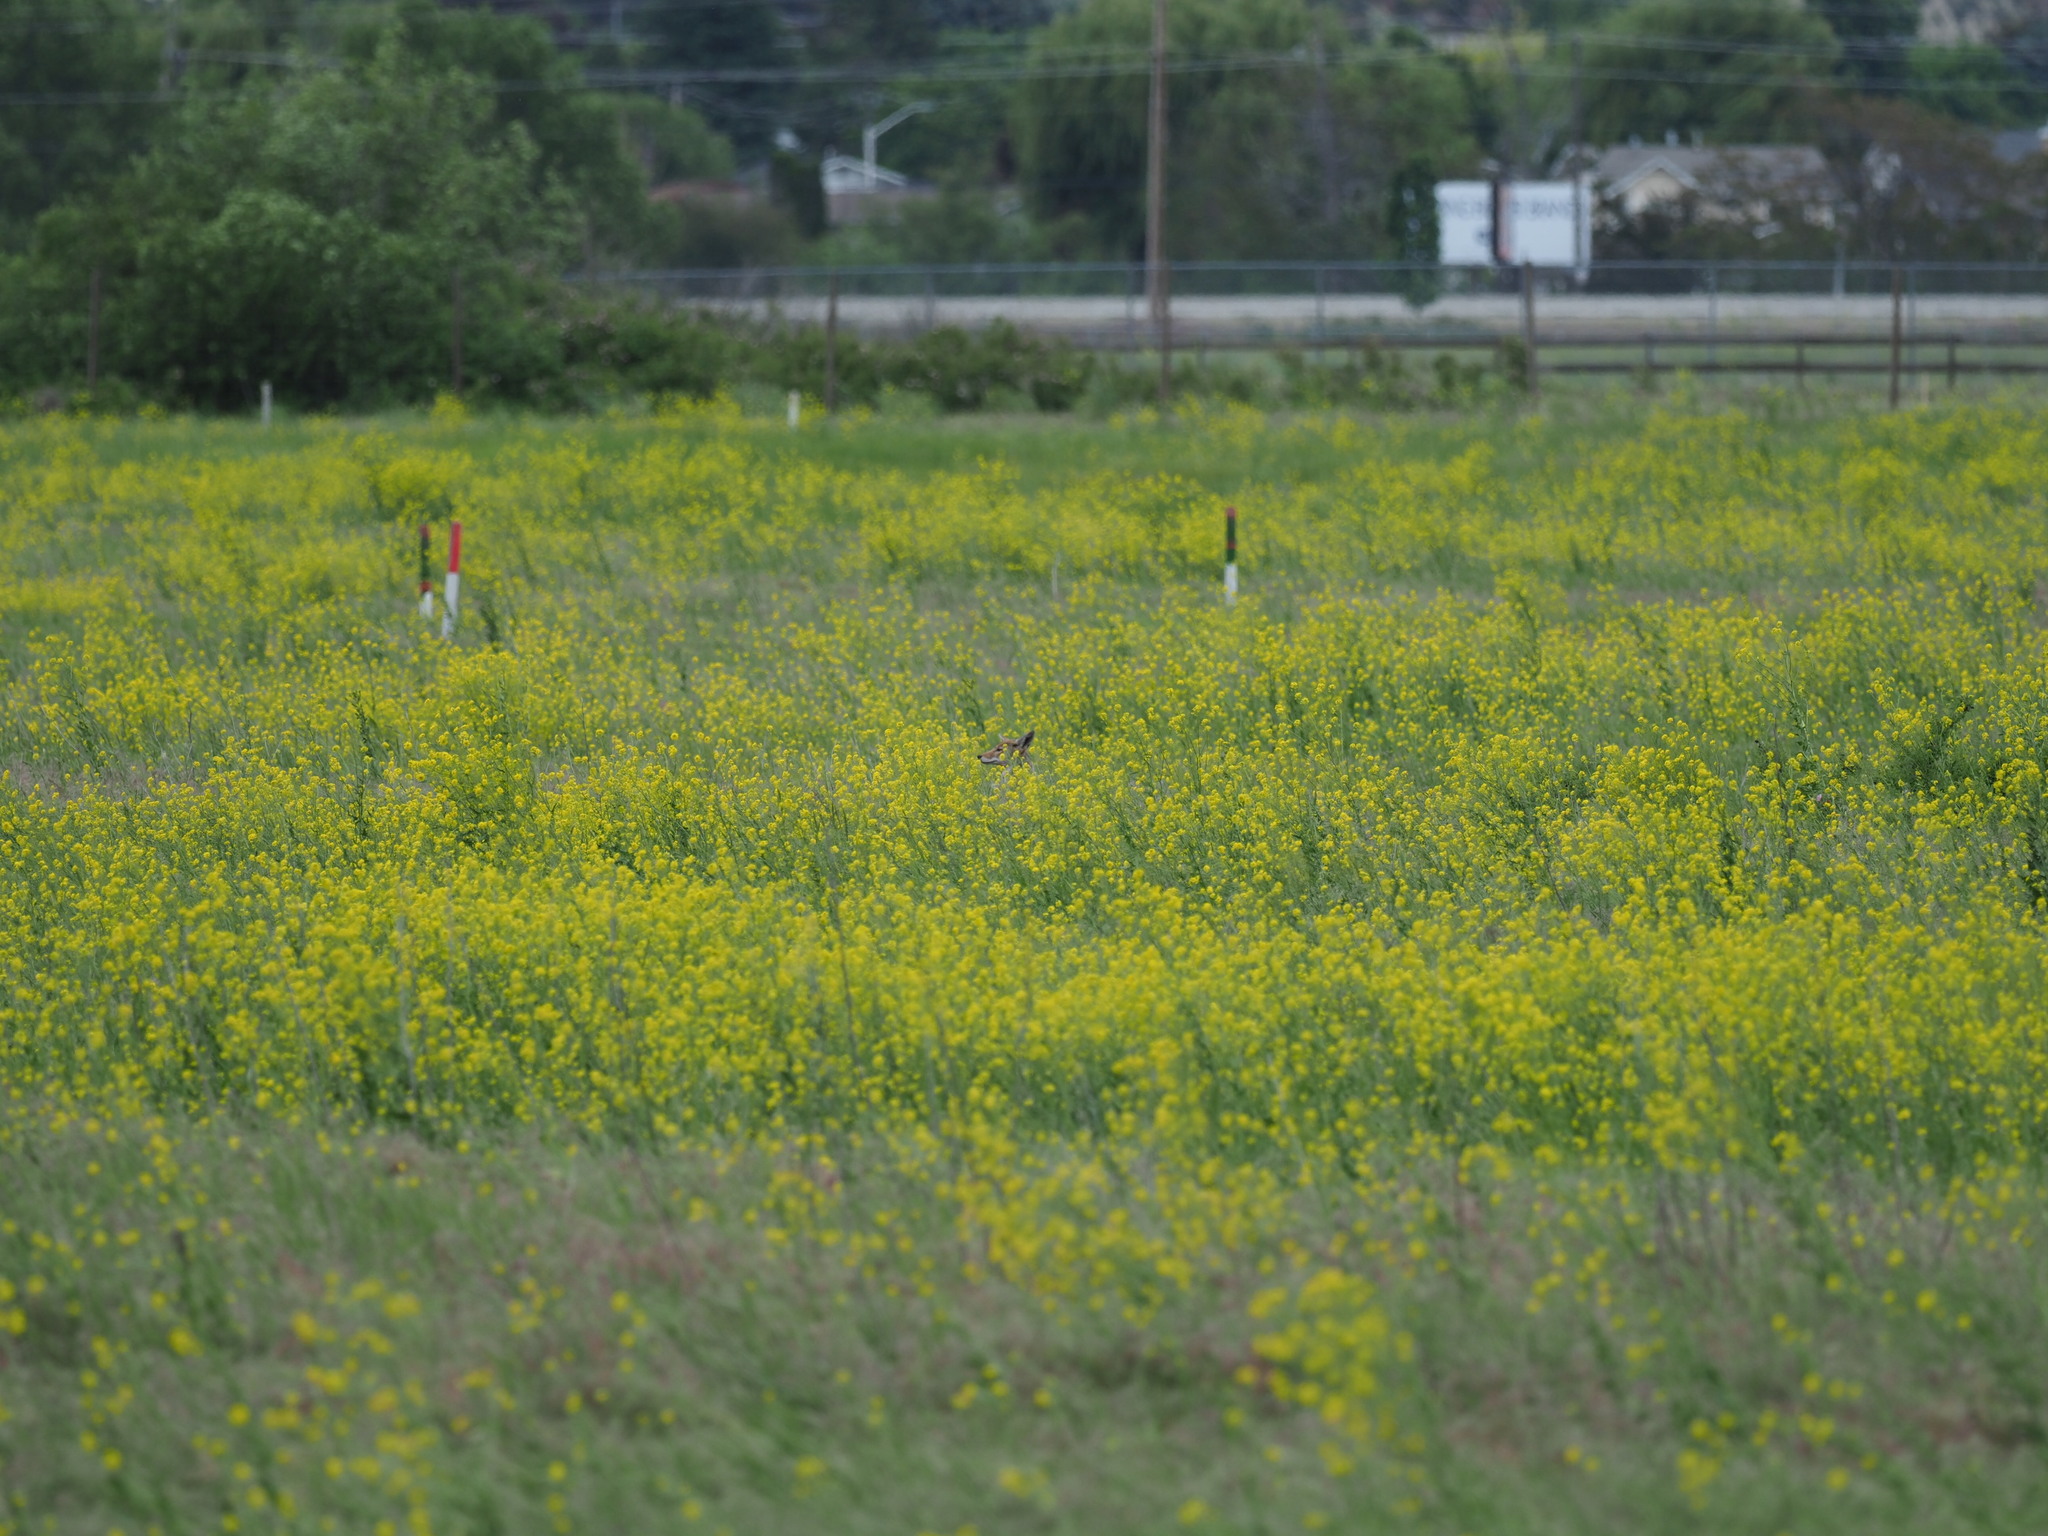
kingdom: Animalia
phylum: Chordata
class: Mammalia
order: Carnivora
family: Canidae
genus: Canis
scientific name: Canis latrans
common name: Coyote
